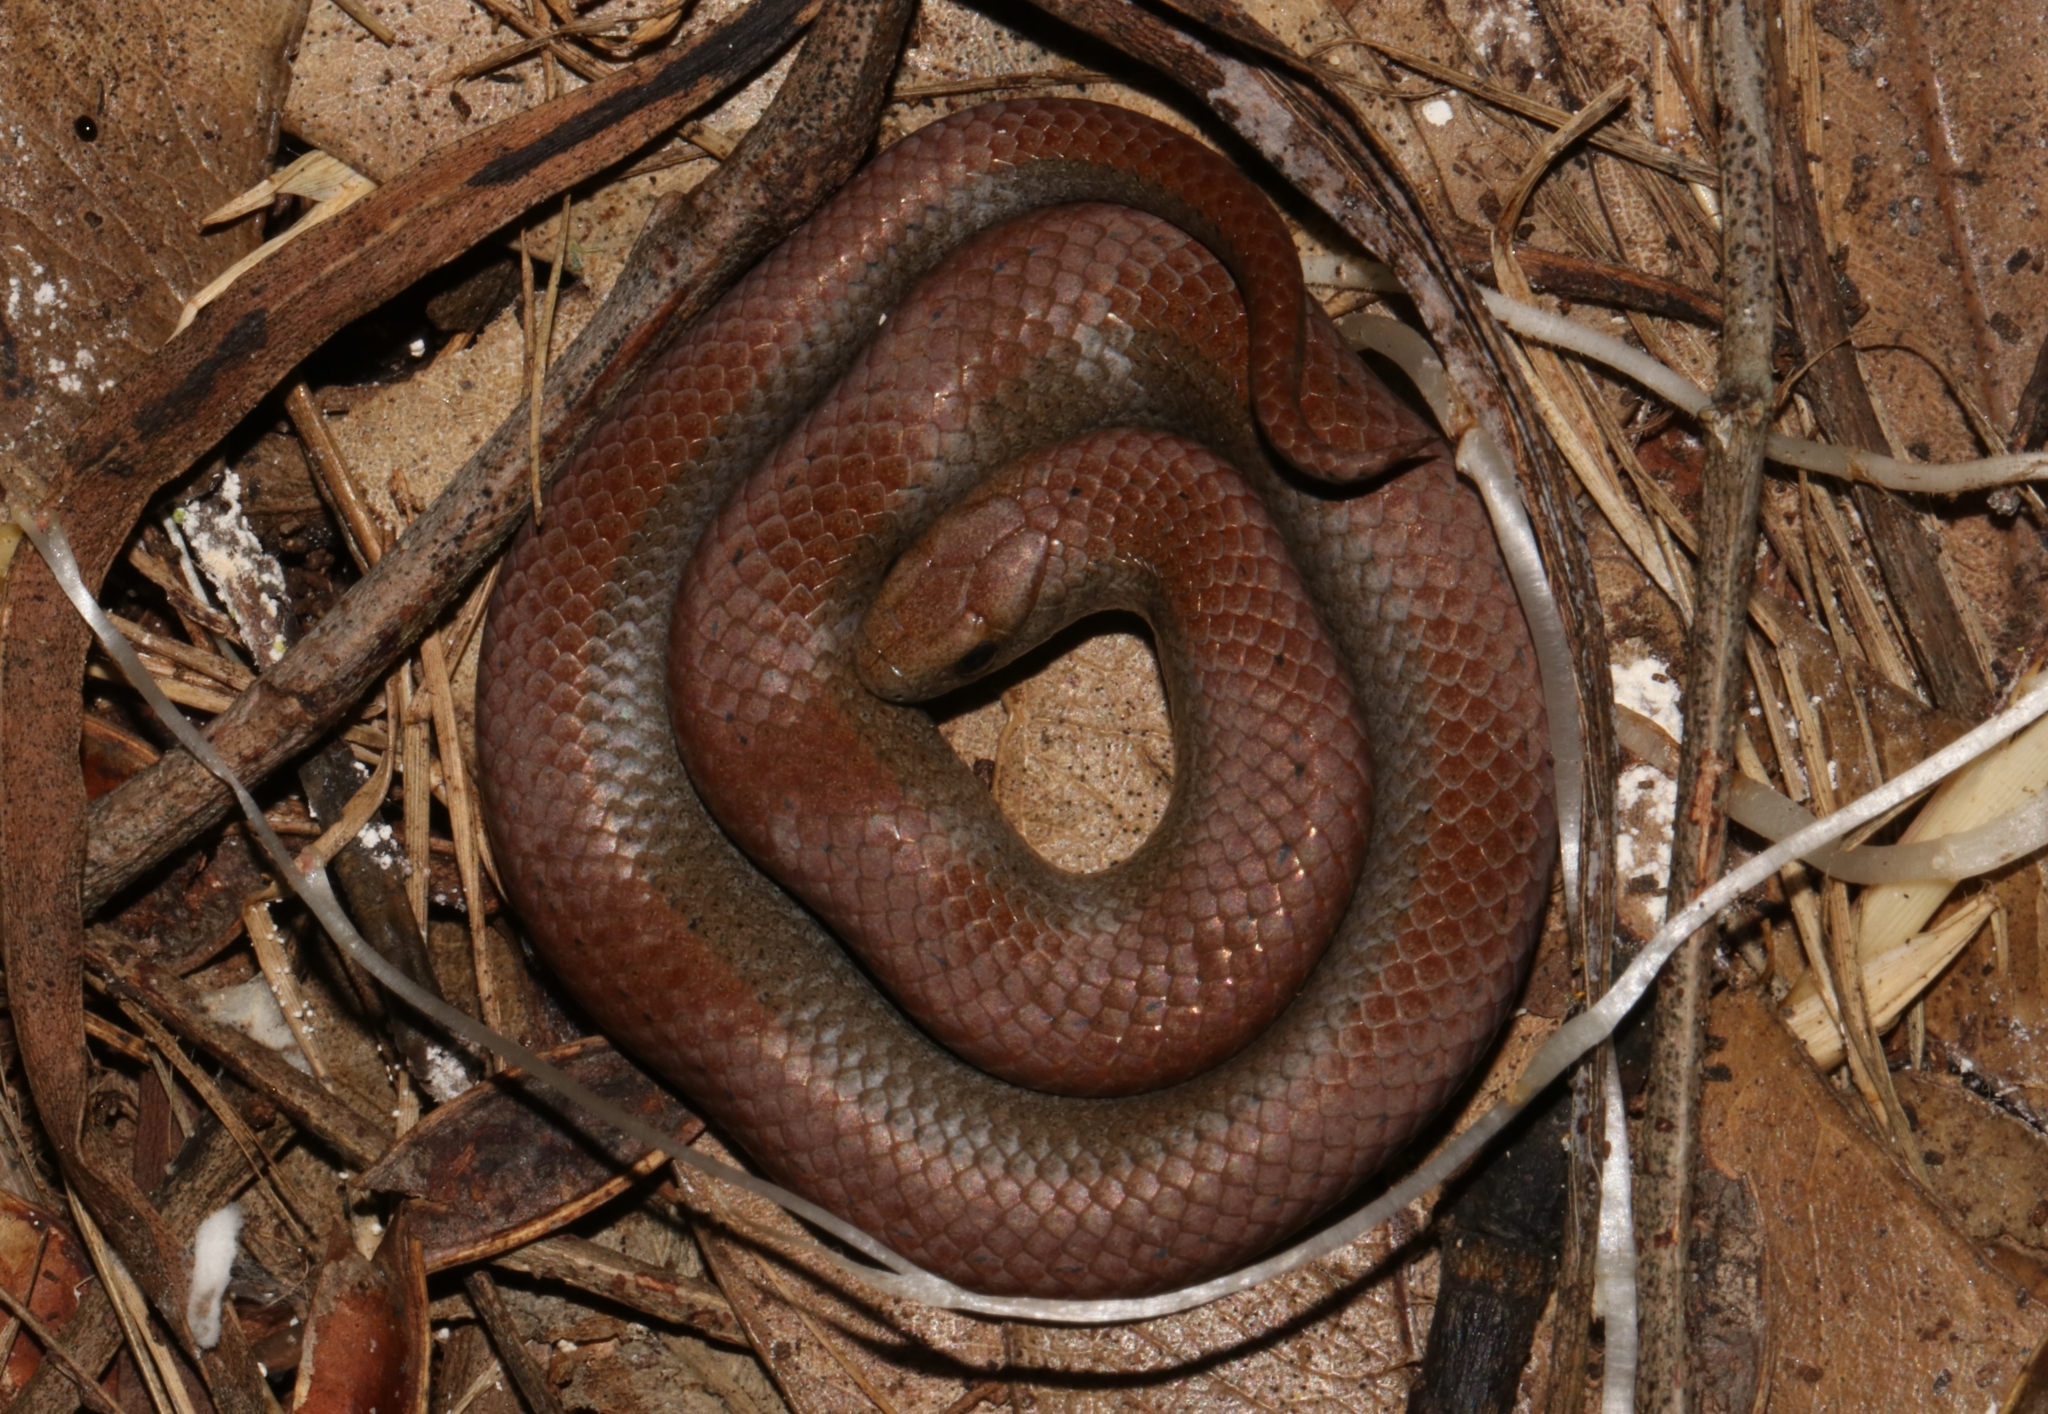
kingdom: Animalia
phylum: Chordata
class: Squamata
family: Pseudoxyrhophiidae
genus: Duberria
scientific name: Duberria lutrix
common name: Common slug eater
